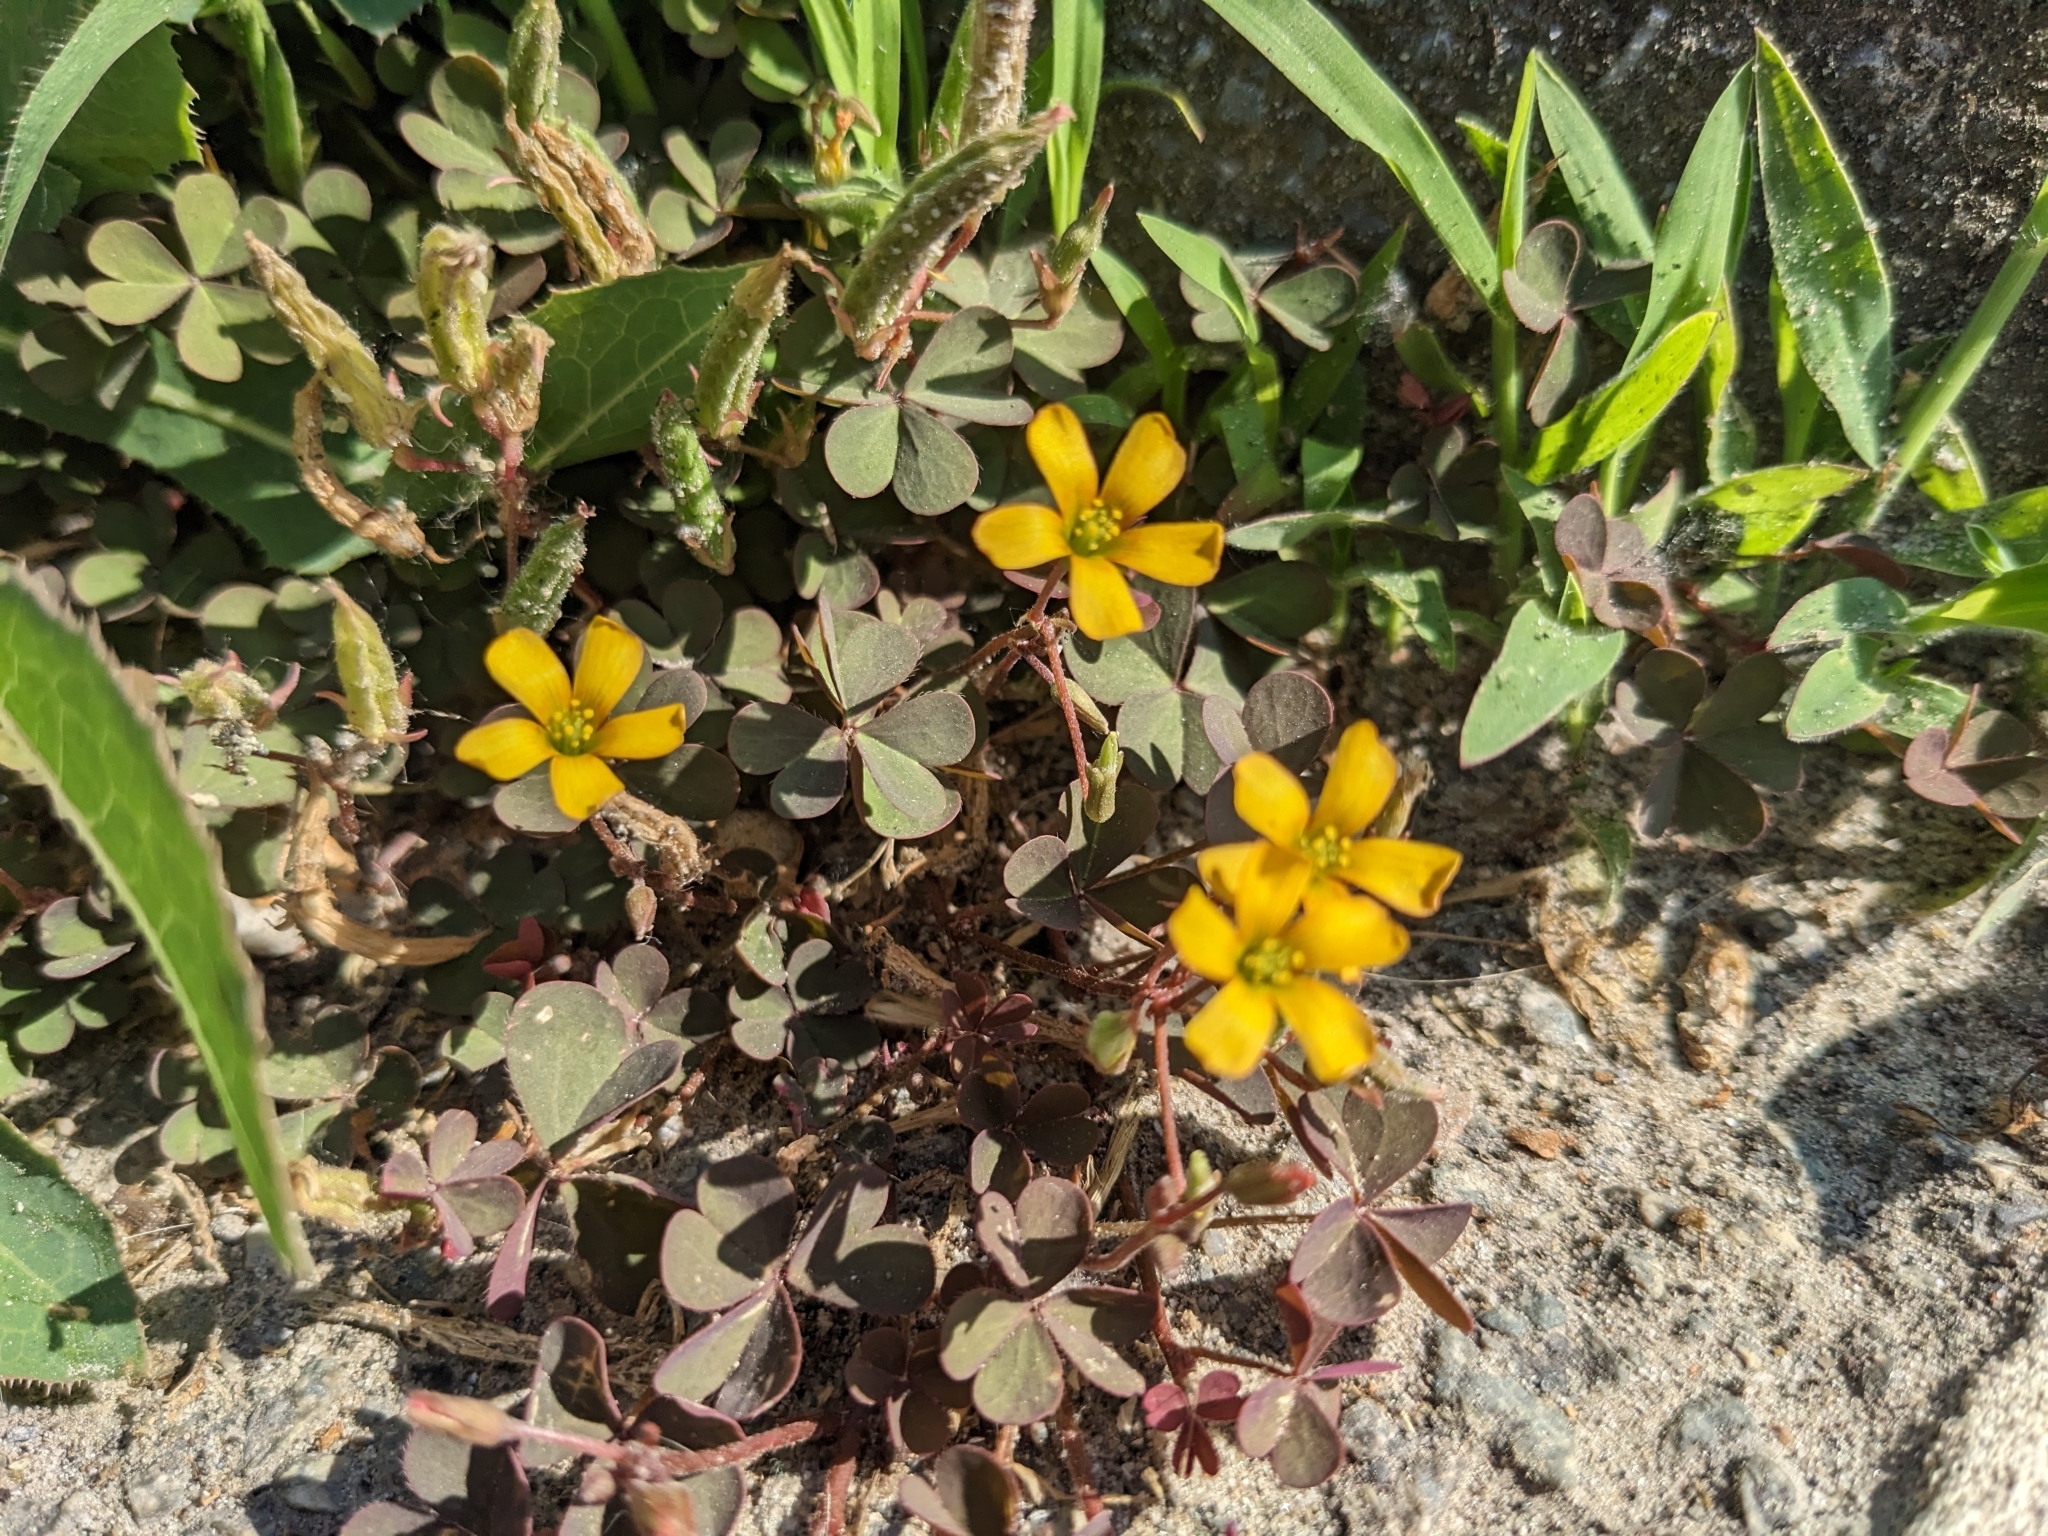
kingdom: Plantae
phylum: Tracheophyta
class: Magnoliopsida
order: Oxalidales
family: Oxalidaceae
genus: Oxalis
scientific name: Oxalis corniculata
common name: Procumbent yellow-sorrel
